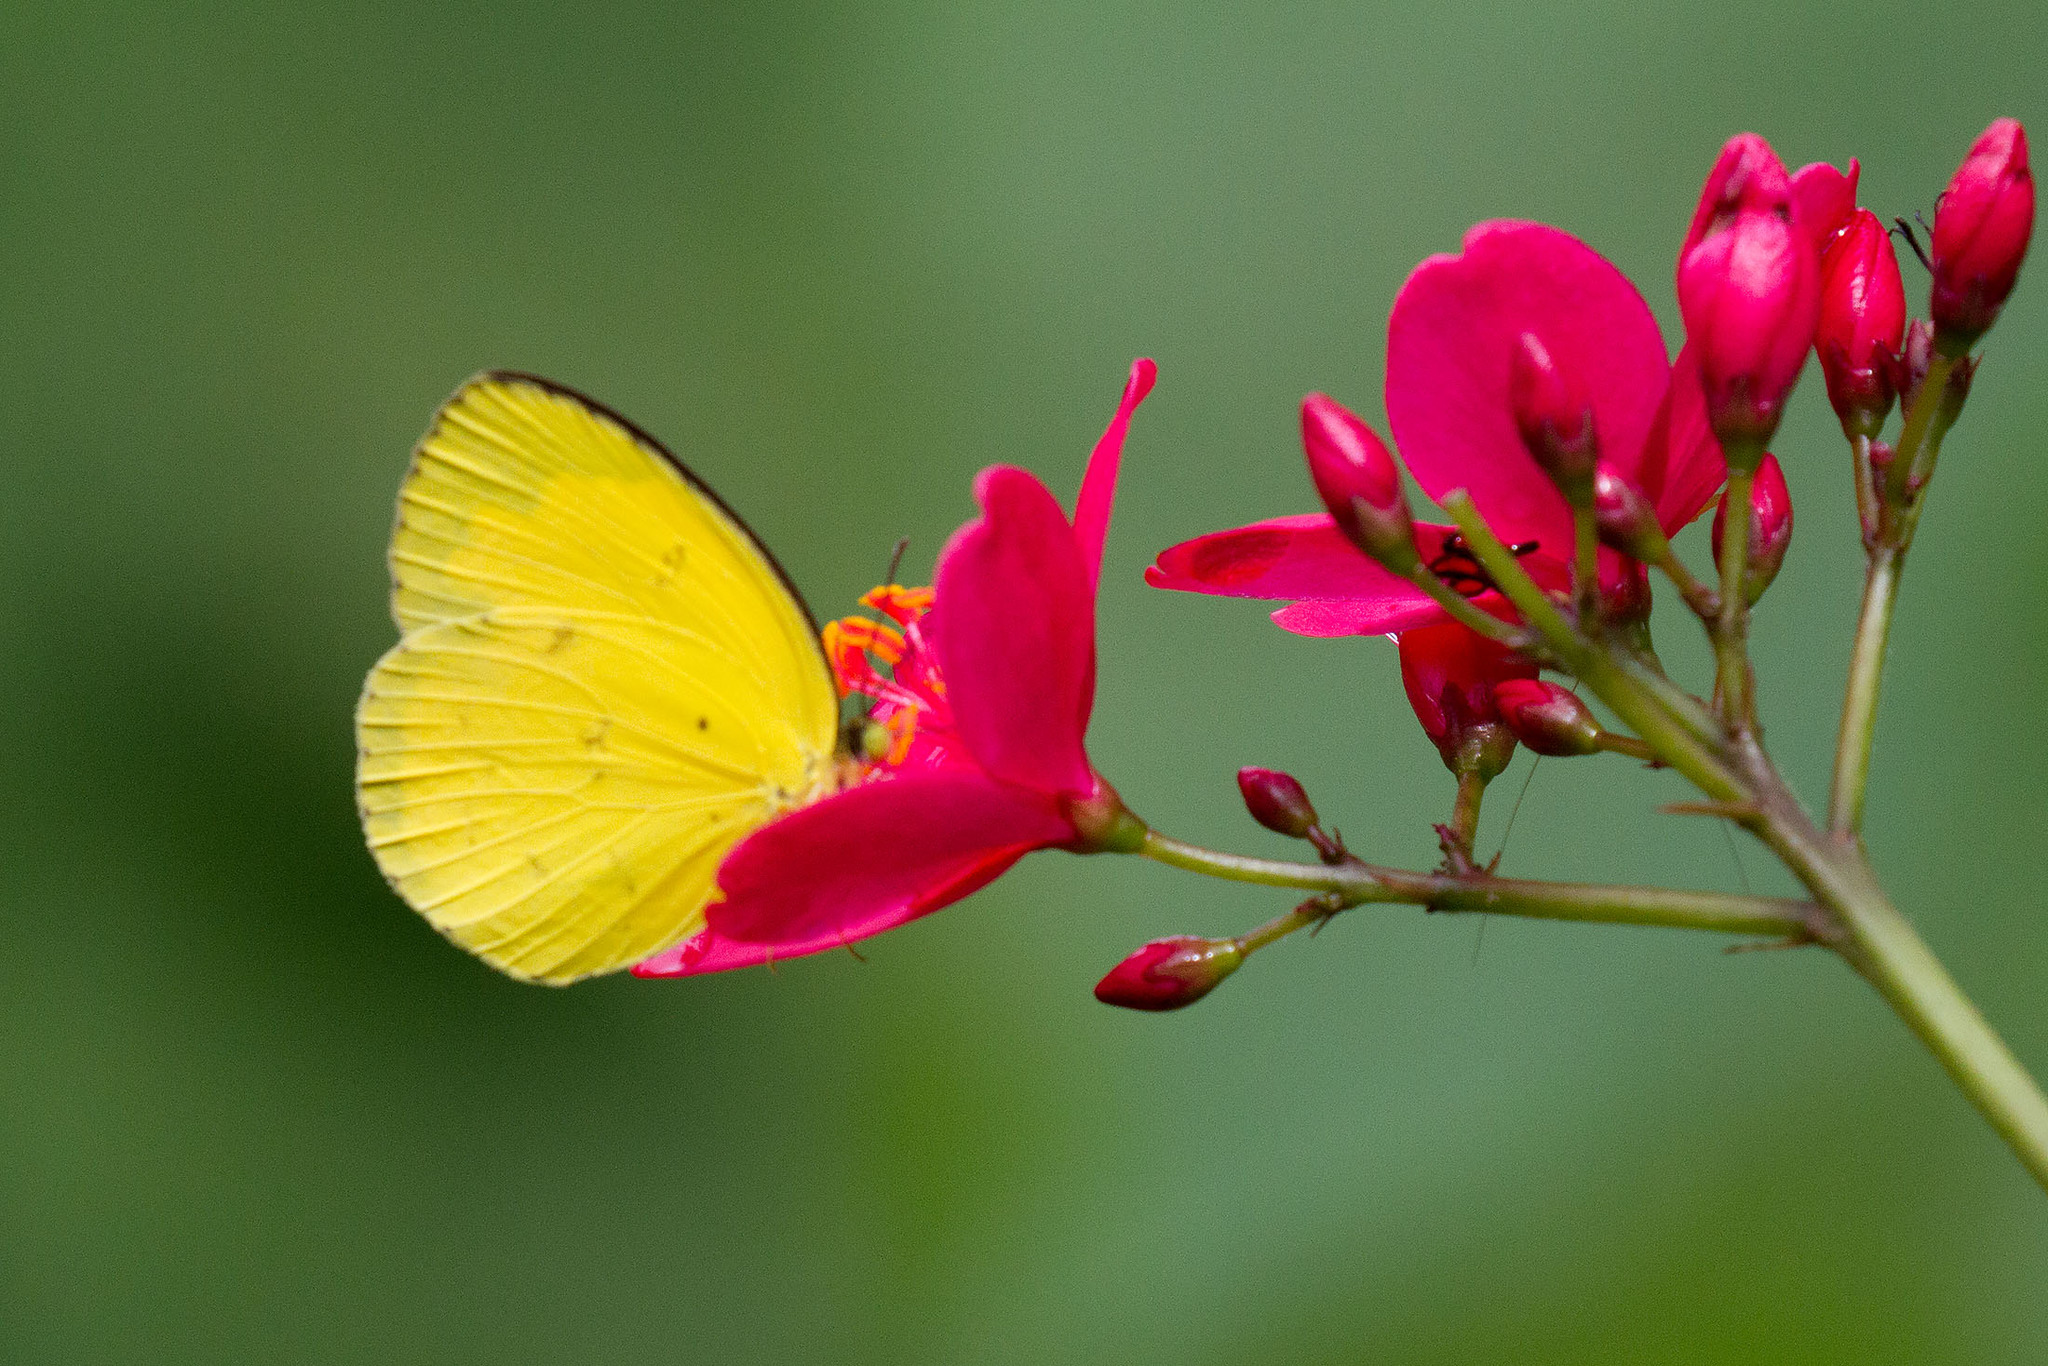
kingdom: Animalia
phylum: Arthropoda
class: Insecta
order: Lepidoptera
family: Pieridae
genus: Eurema
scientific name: Eurema hecabe
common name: Pale grass yellow
